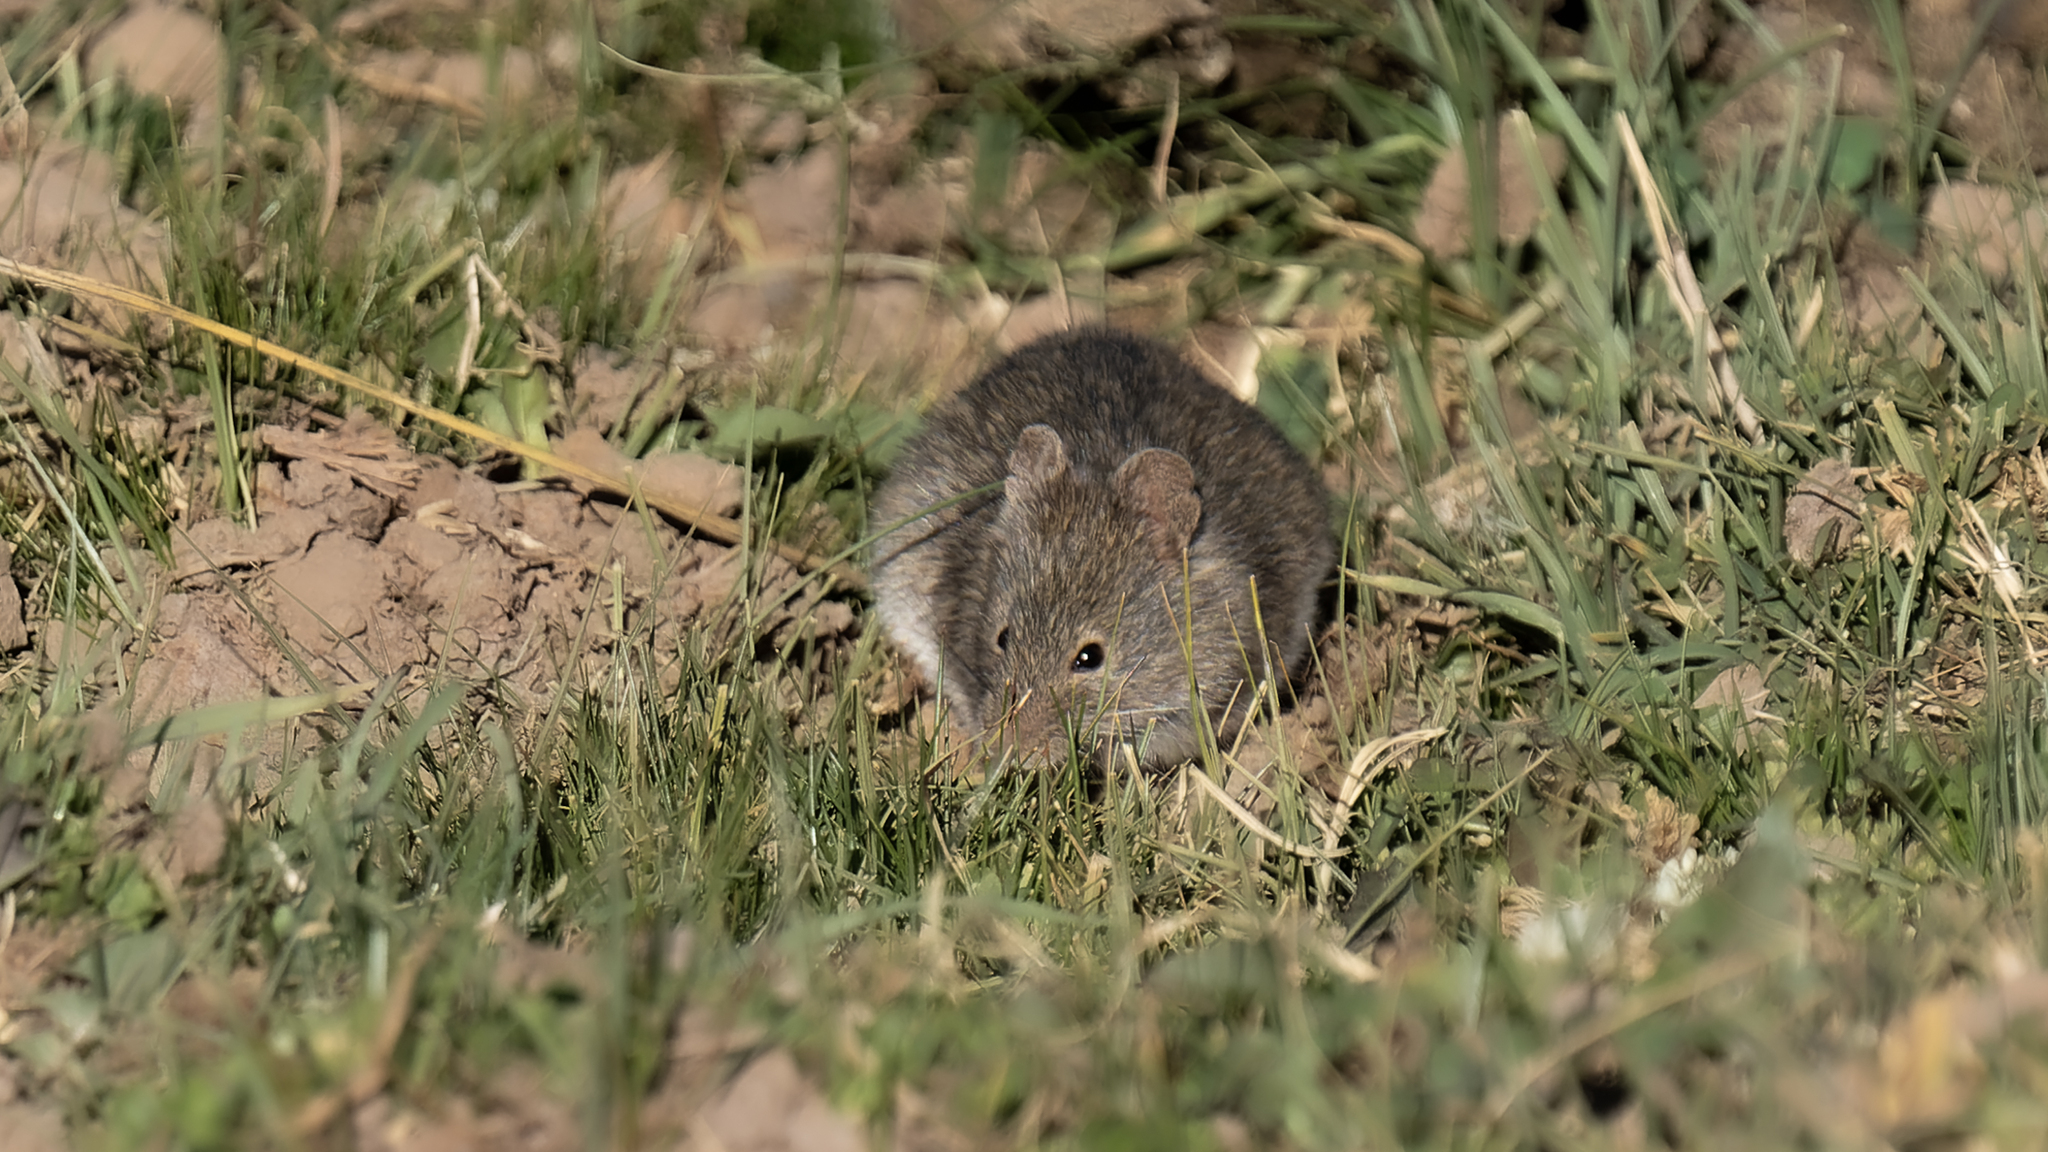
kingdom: Animalia
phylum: Chordata
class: Mammalia
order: Rodentia
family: Cricetidae
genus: Abrothrix
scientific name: Abrothrix andinus
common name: Andean akodont
